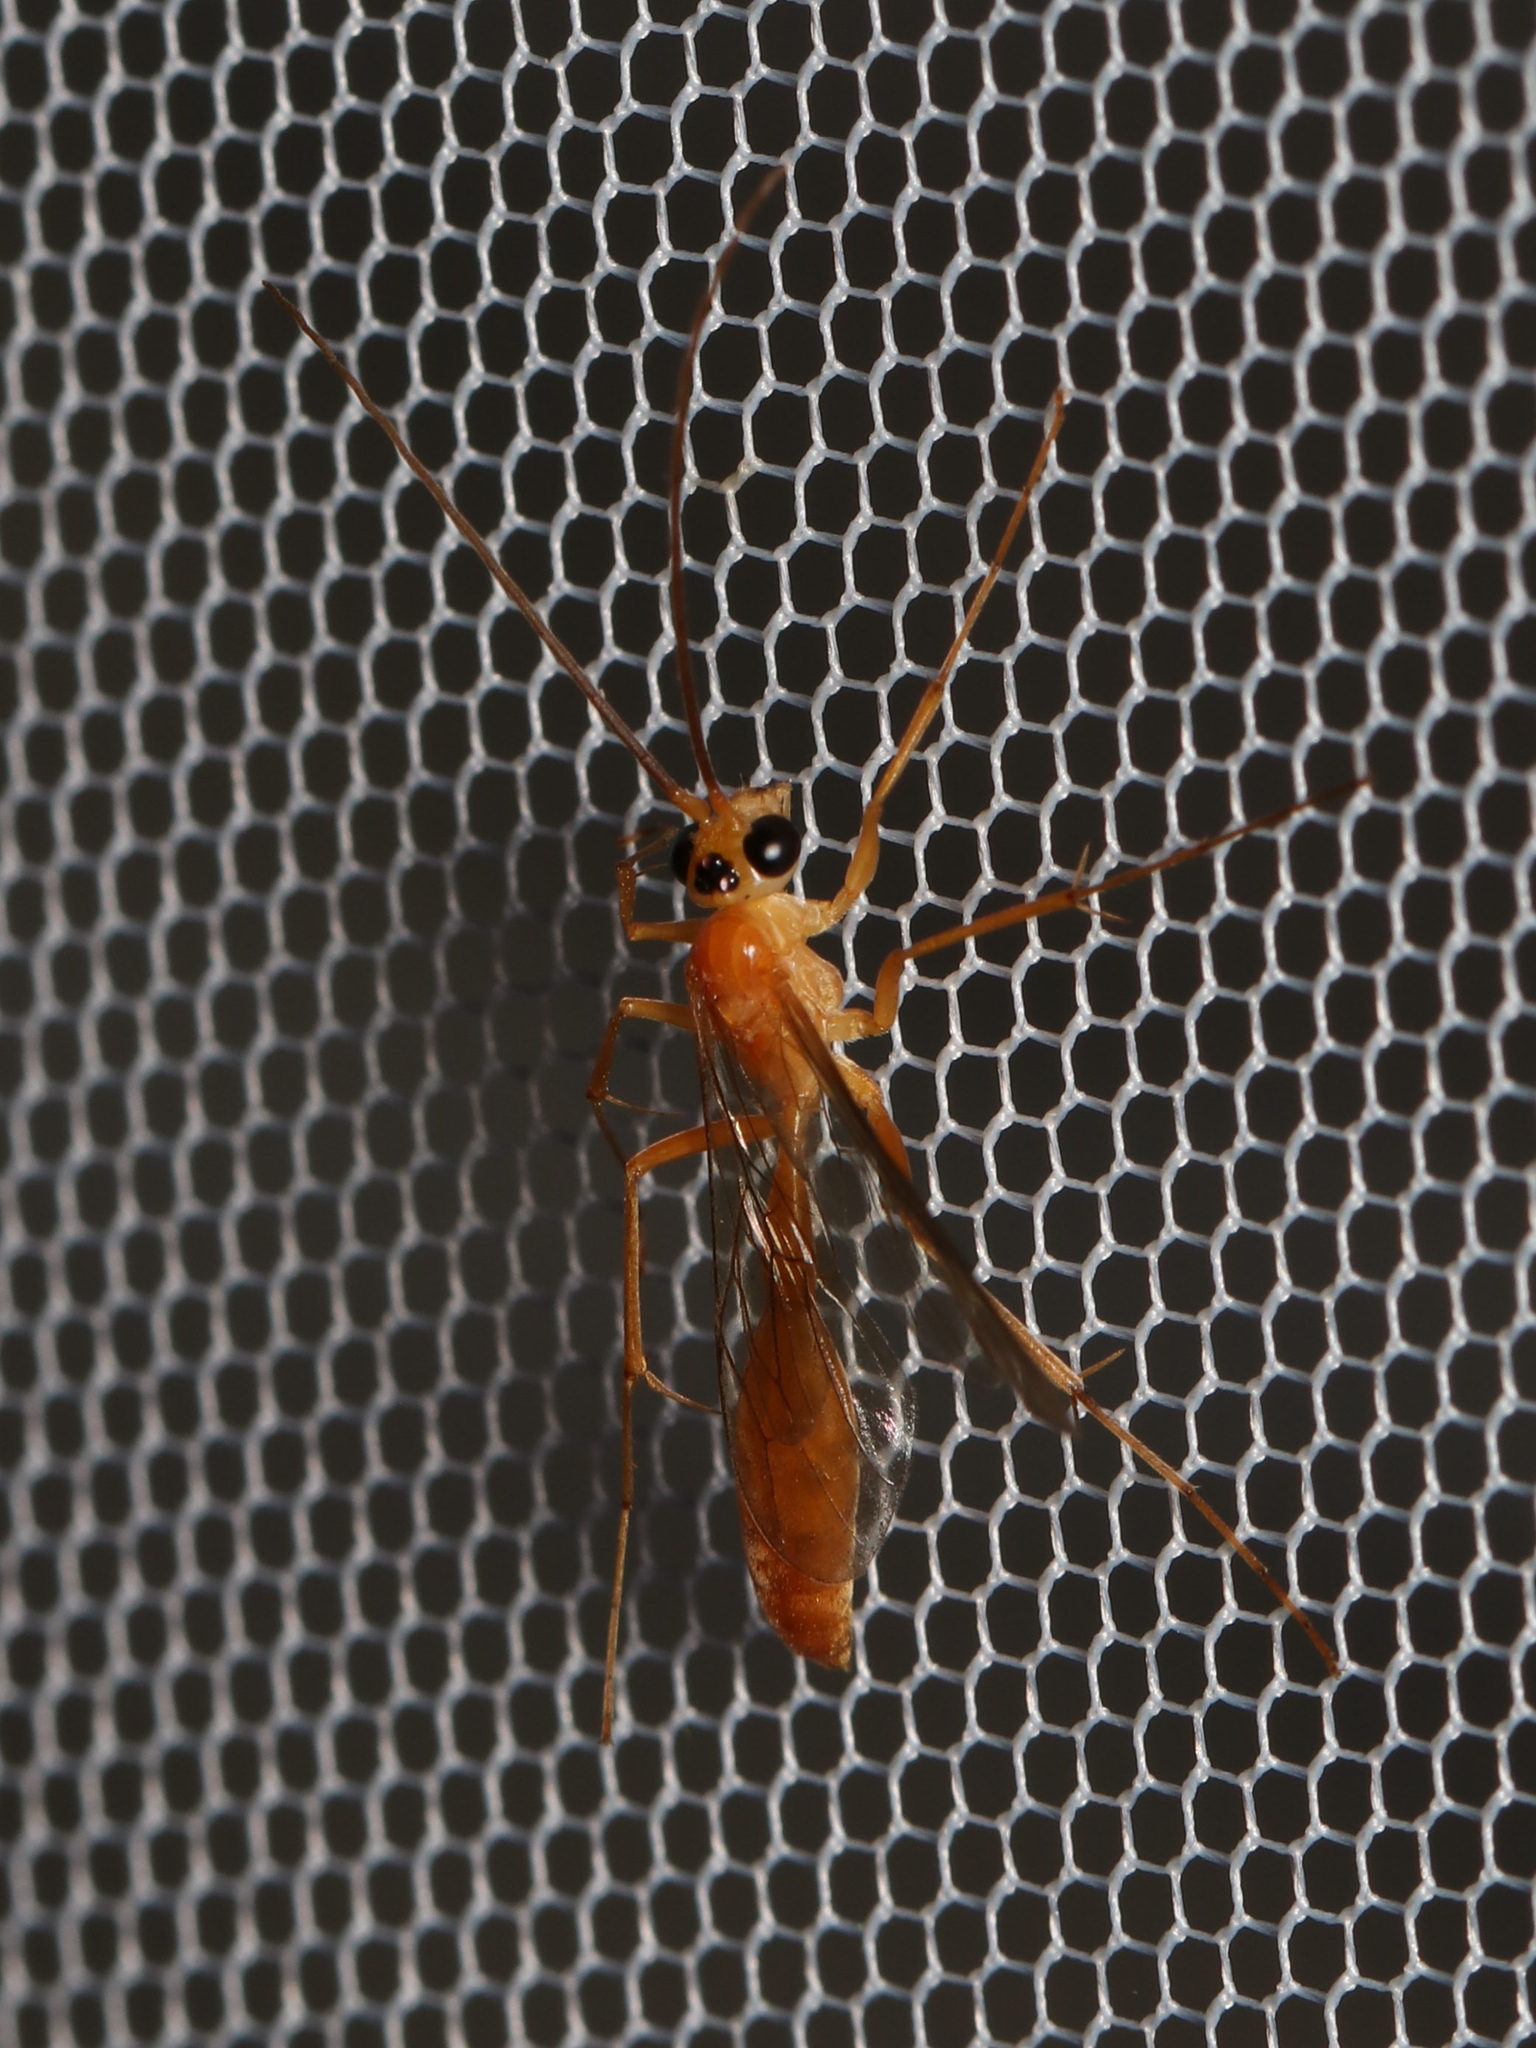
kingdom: Animalia
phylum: Arthropoda
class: Insecta
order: Hymenoptera
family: Rhopalosomatidae
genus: Rhopalosoma
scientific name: Rhopalosoma nearcticum
